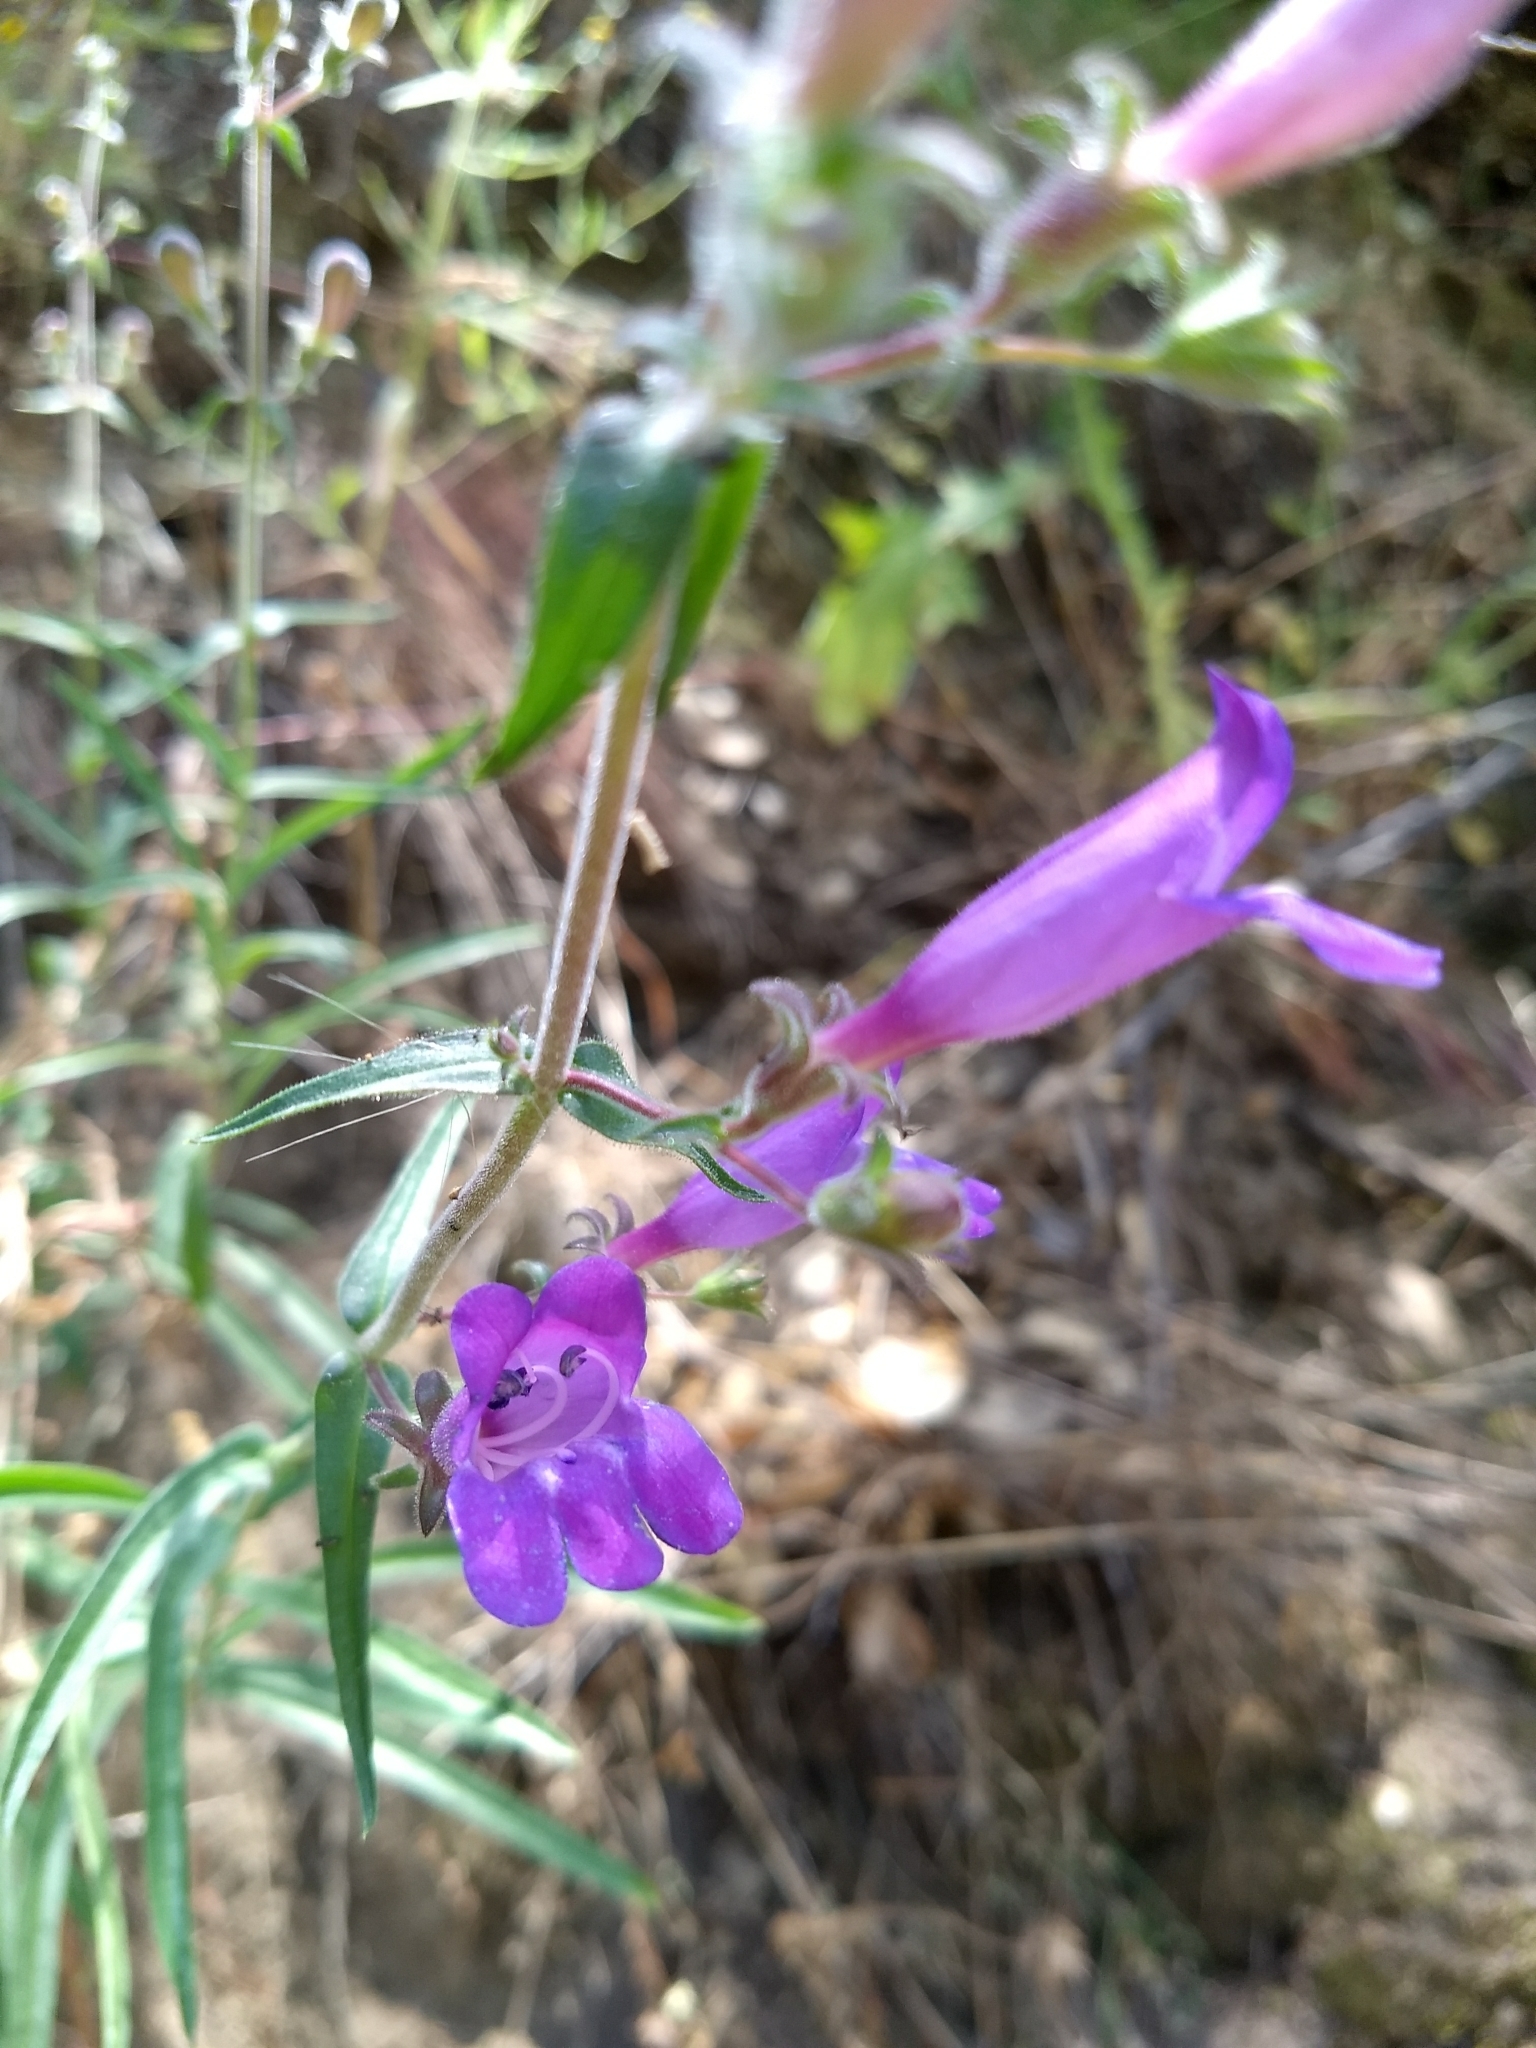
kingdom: Plantae
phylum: Tracheophyta
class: Magnoliopsida
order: Lamiales
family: Plantaginaceae
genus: Penstemon
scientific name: Penstemon laetus
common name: Gay penstemon
